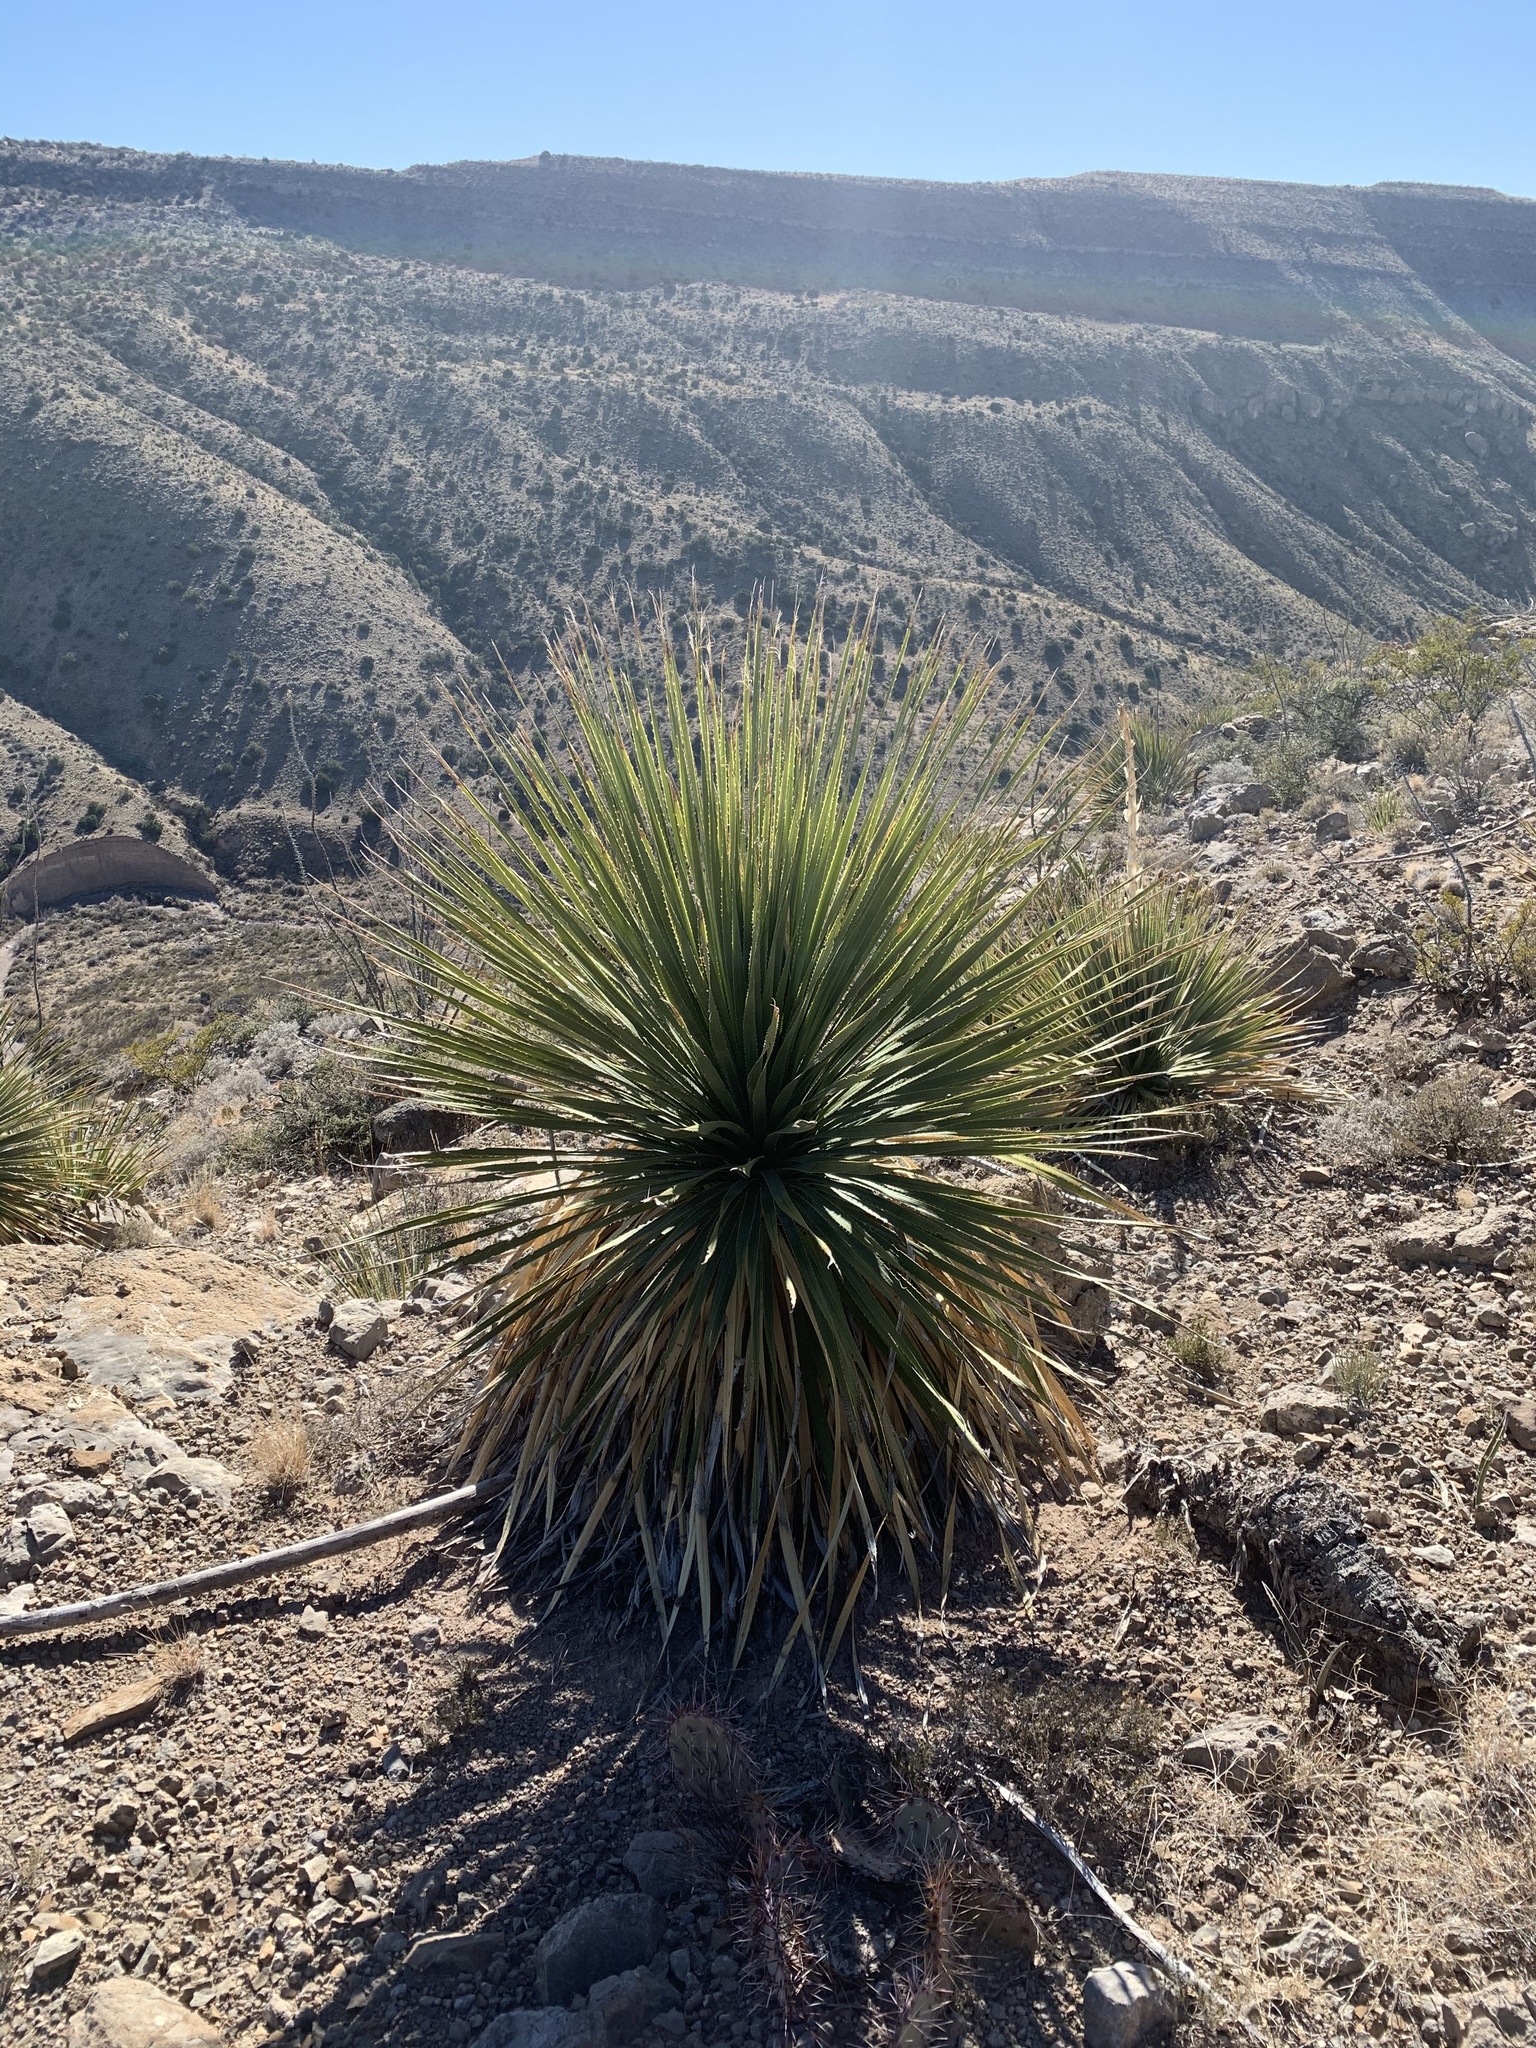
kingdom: Plantae
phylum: Tracheophyta
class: Liliopsida
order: Asparagales
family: Asparagaceae
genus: Dasylirion
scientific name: Dasylirion wheeleri
